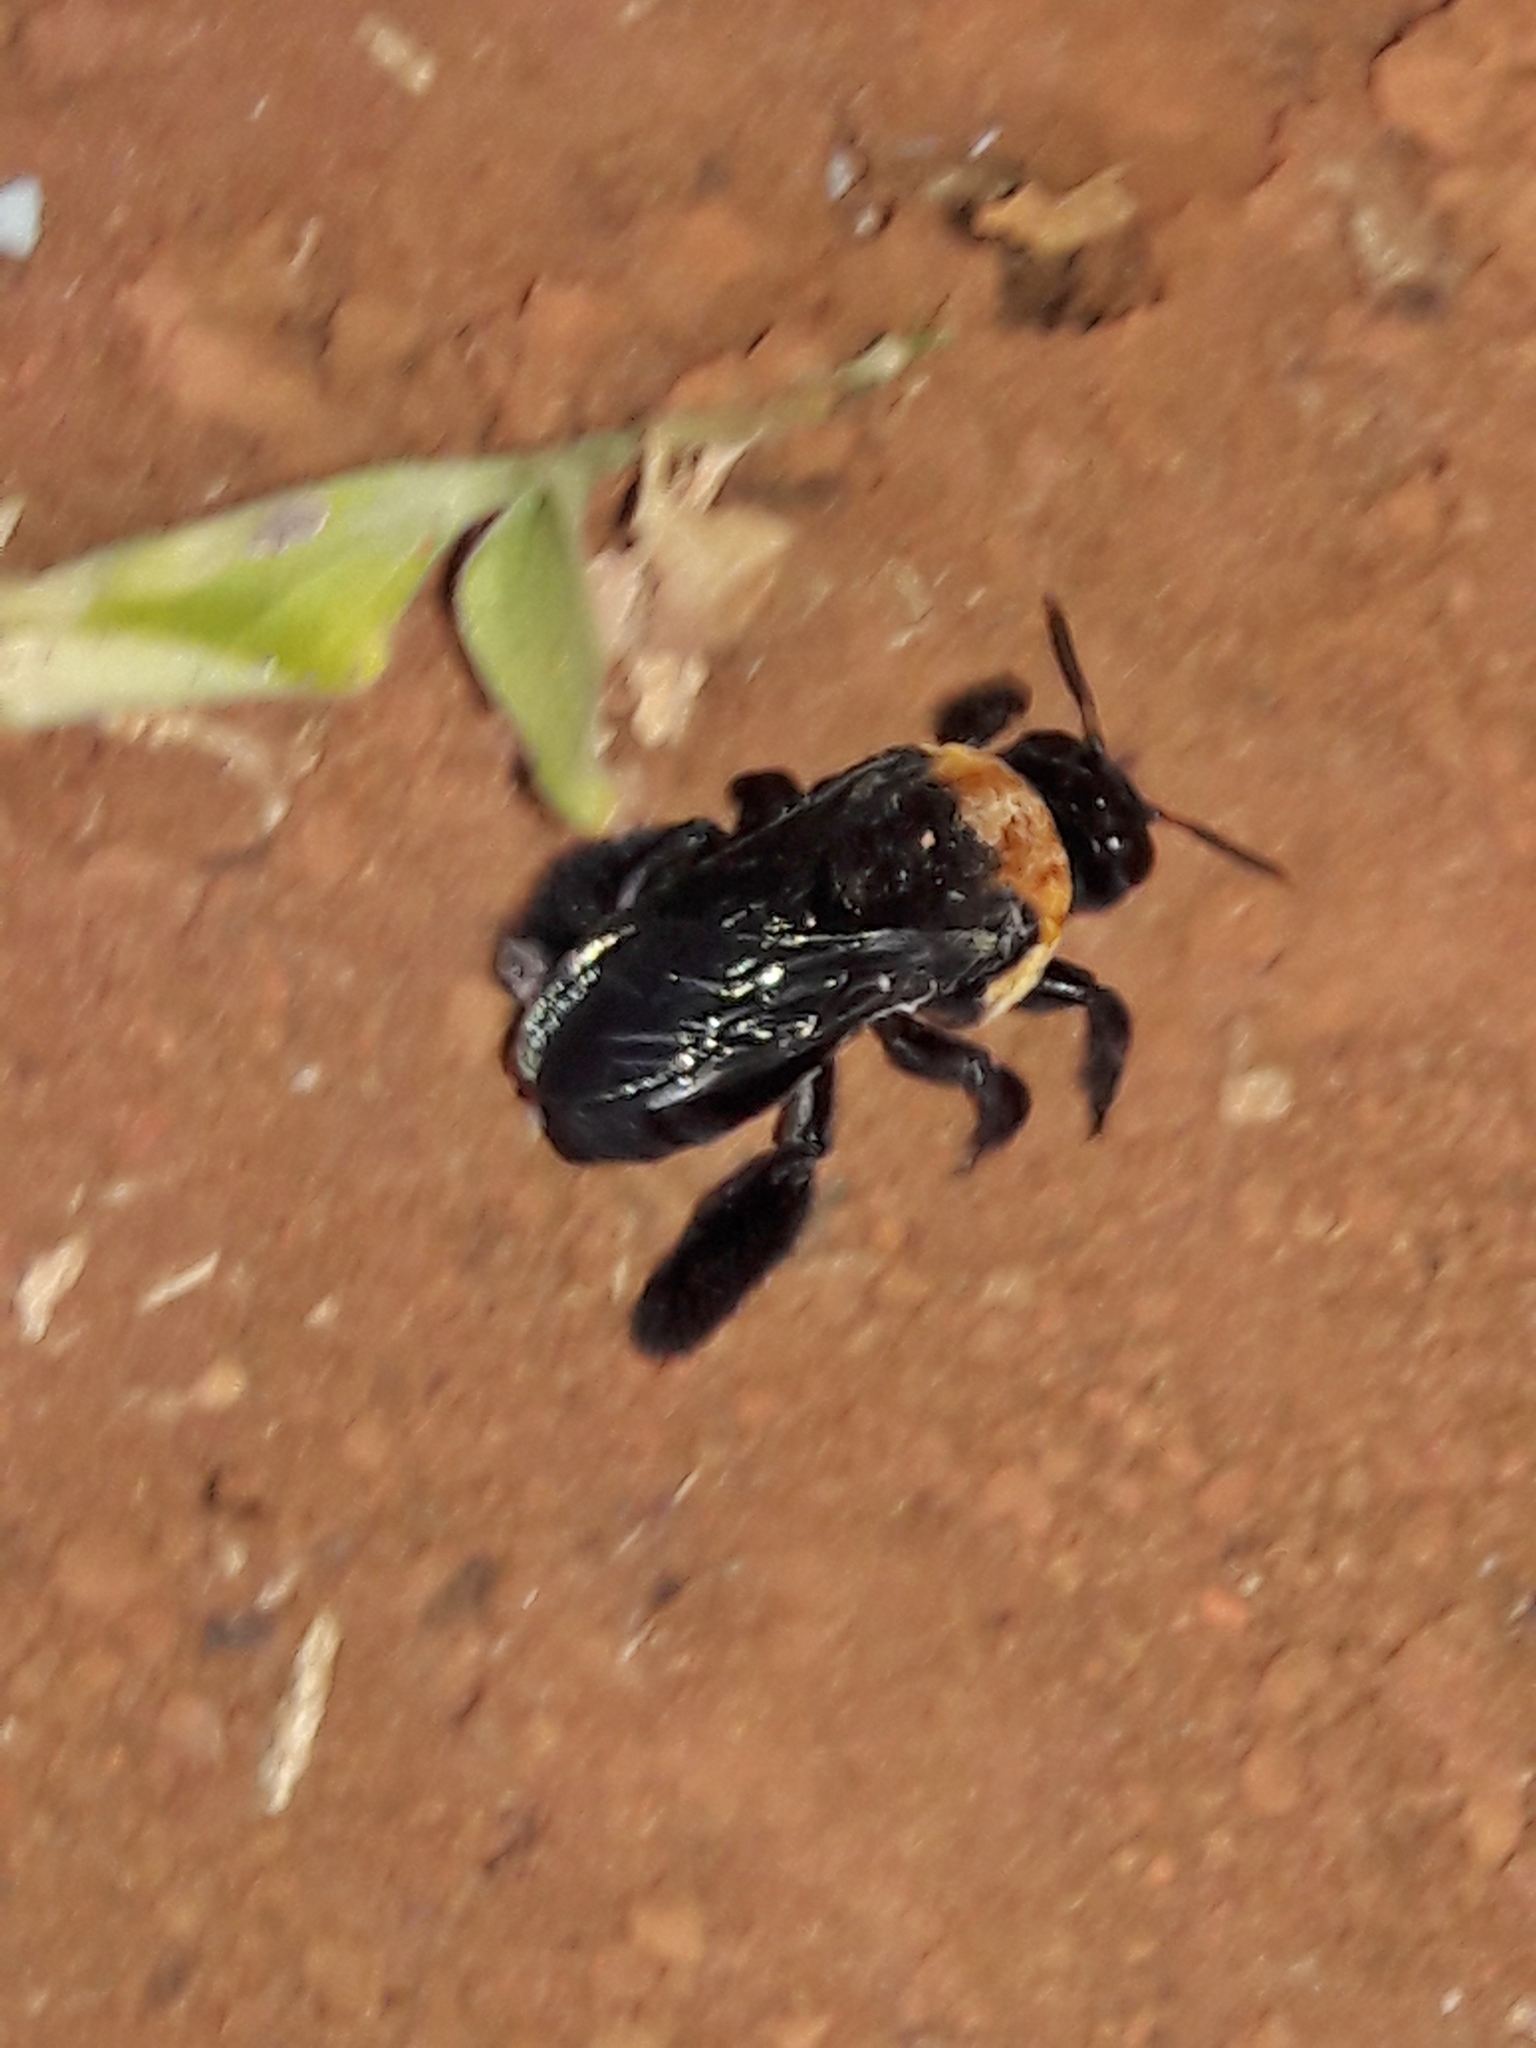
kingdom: Animalia
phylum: Arthropoda
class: Insecta
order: Hymenoptera
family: Apidae
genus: Centris
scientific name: Centris scopipes
